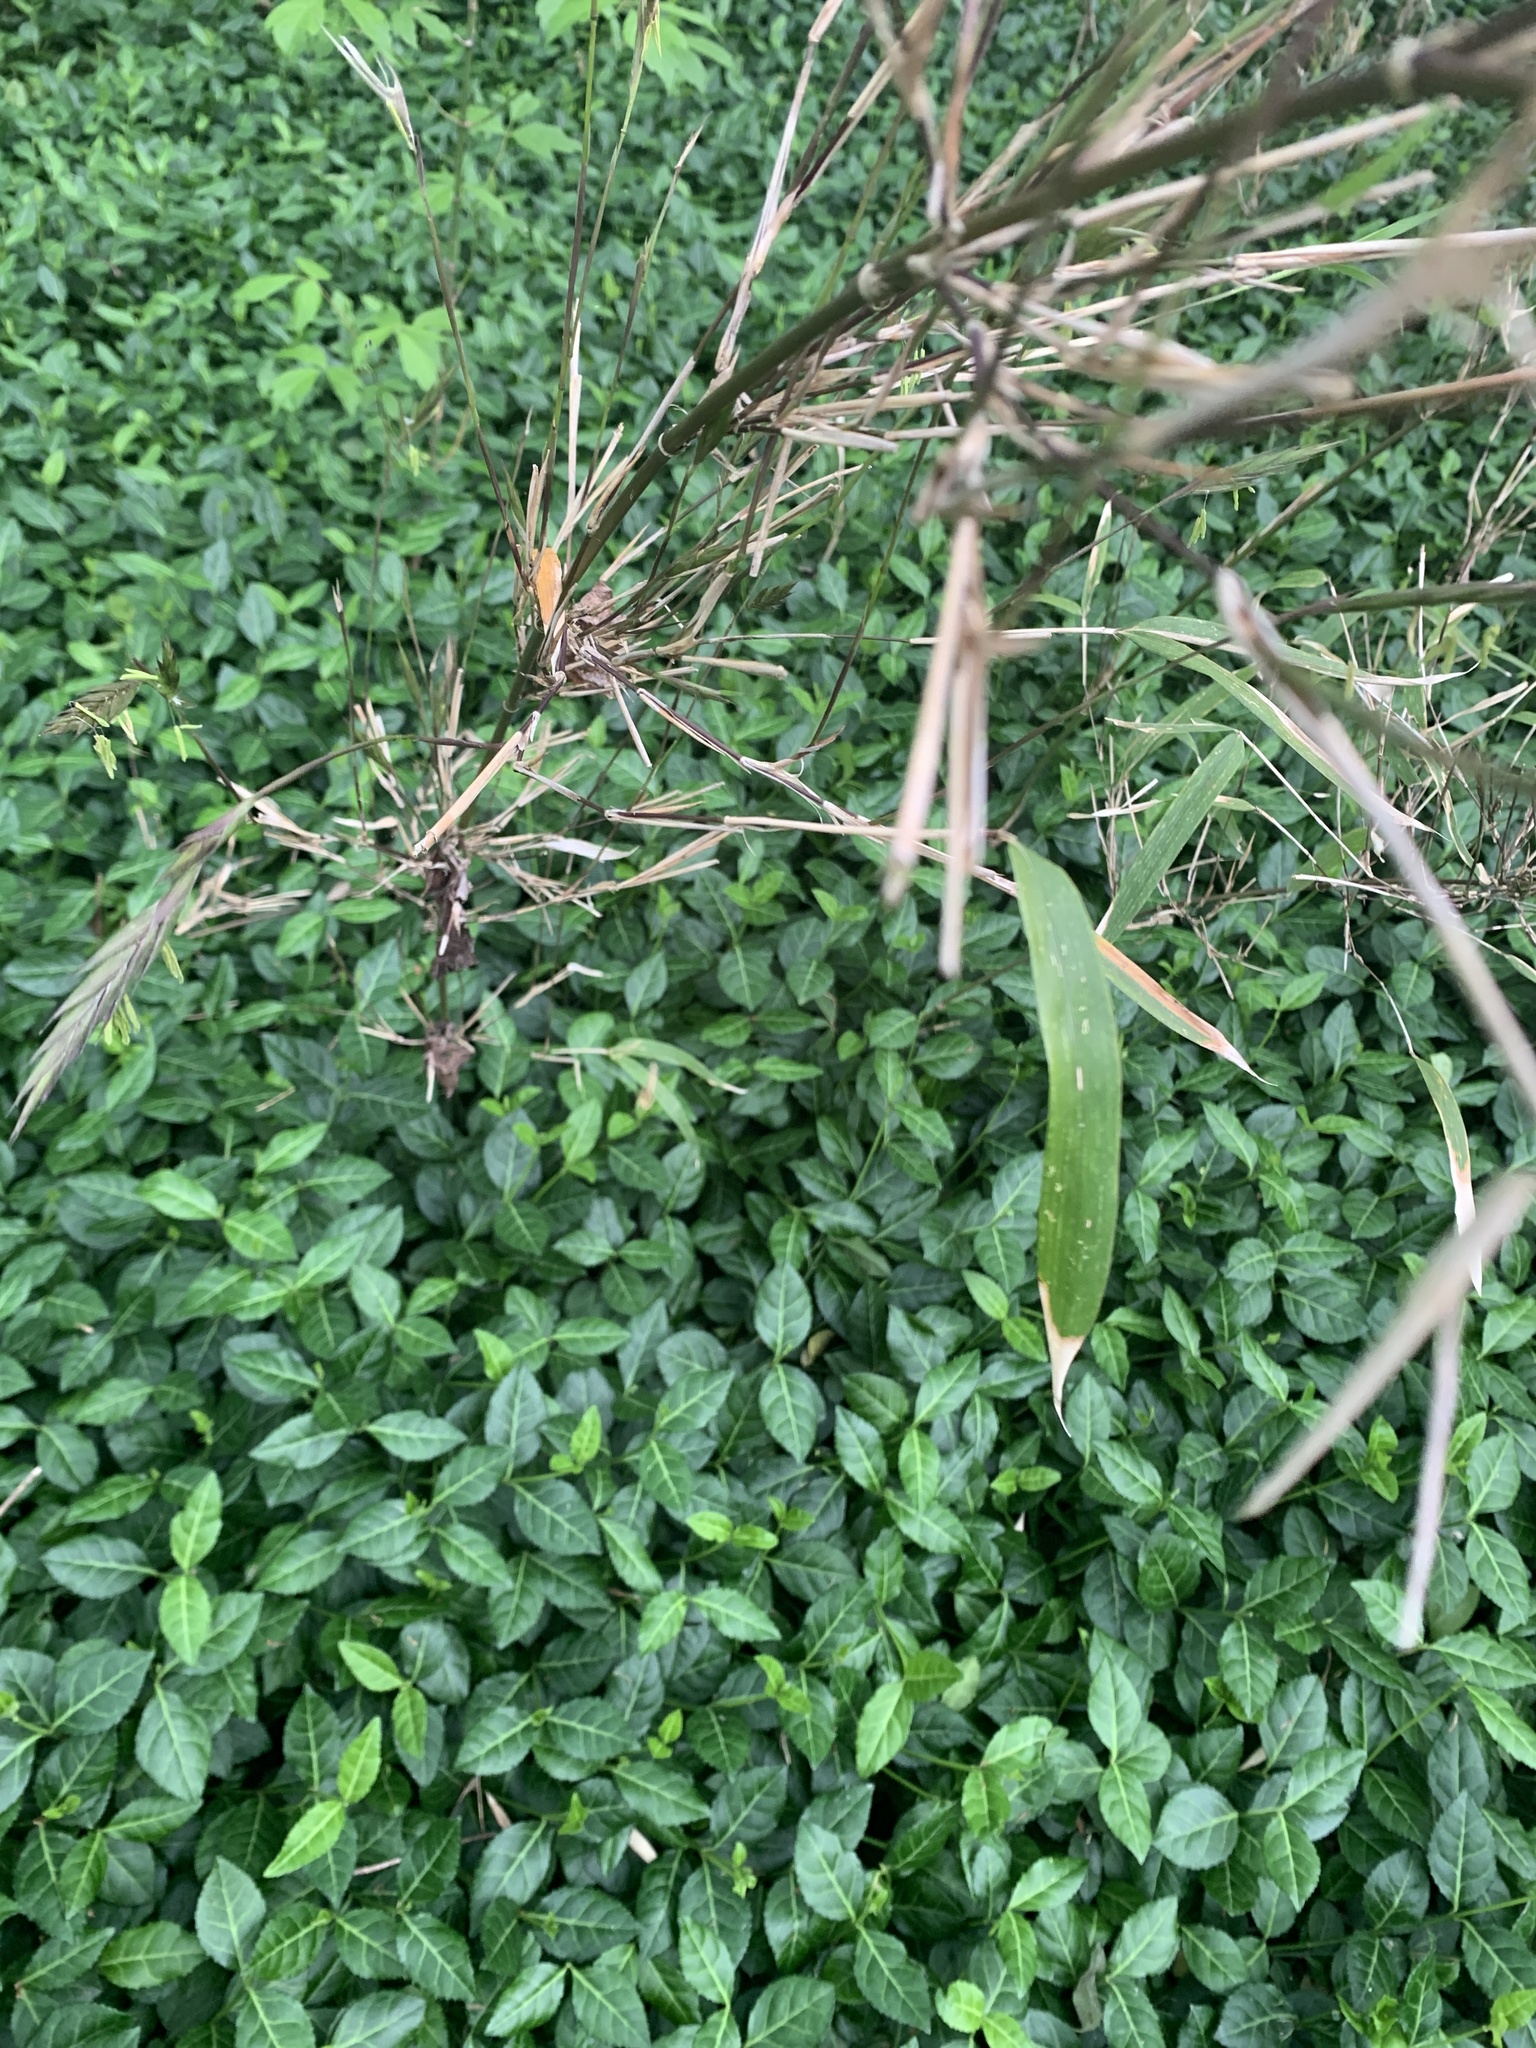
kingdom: Plantae
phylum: Tracheophyta
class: Liliopsida
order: Poales
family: Poaceae
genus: Arundinaria
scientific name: Arundinaria gigantea
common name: Giant cane
